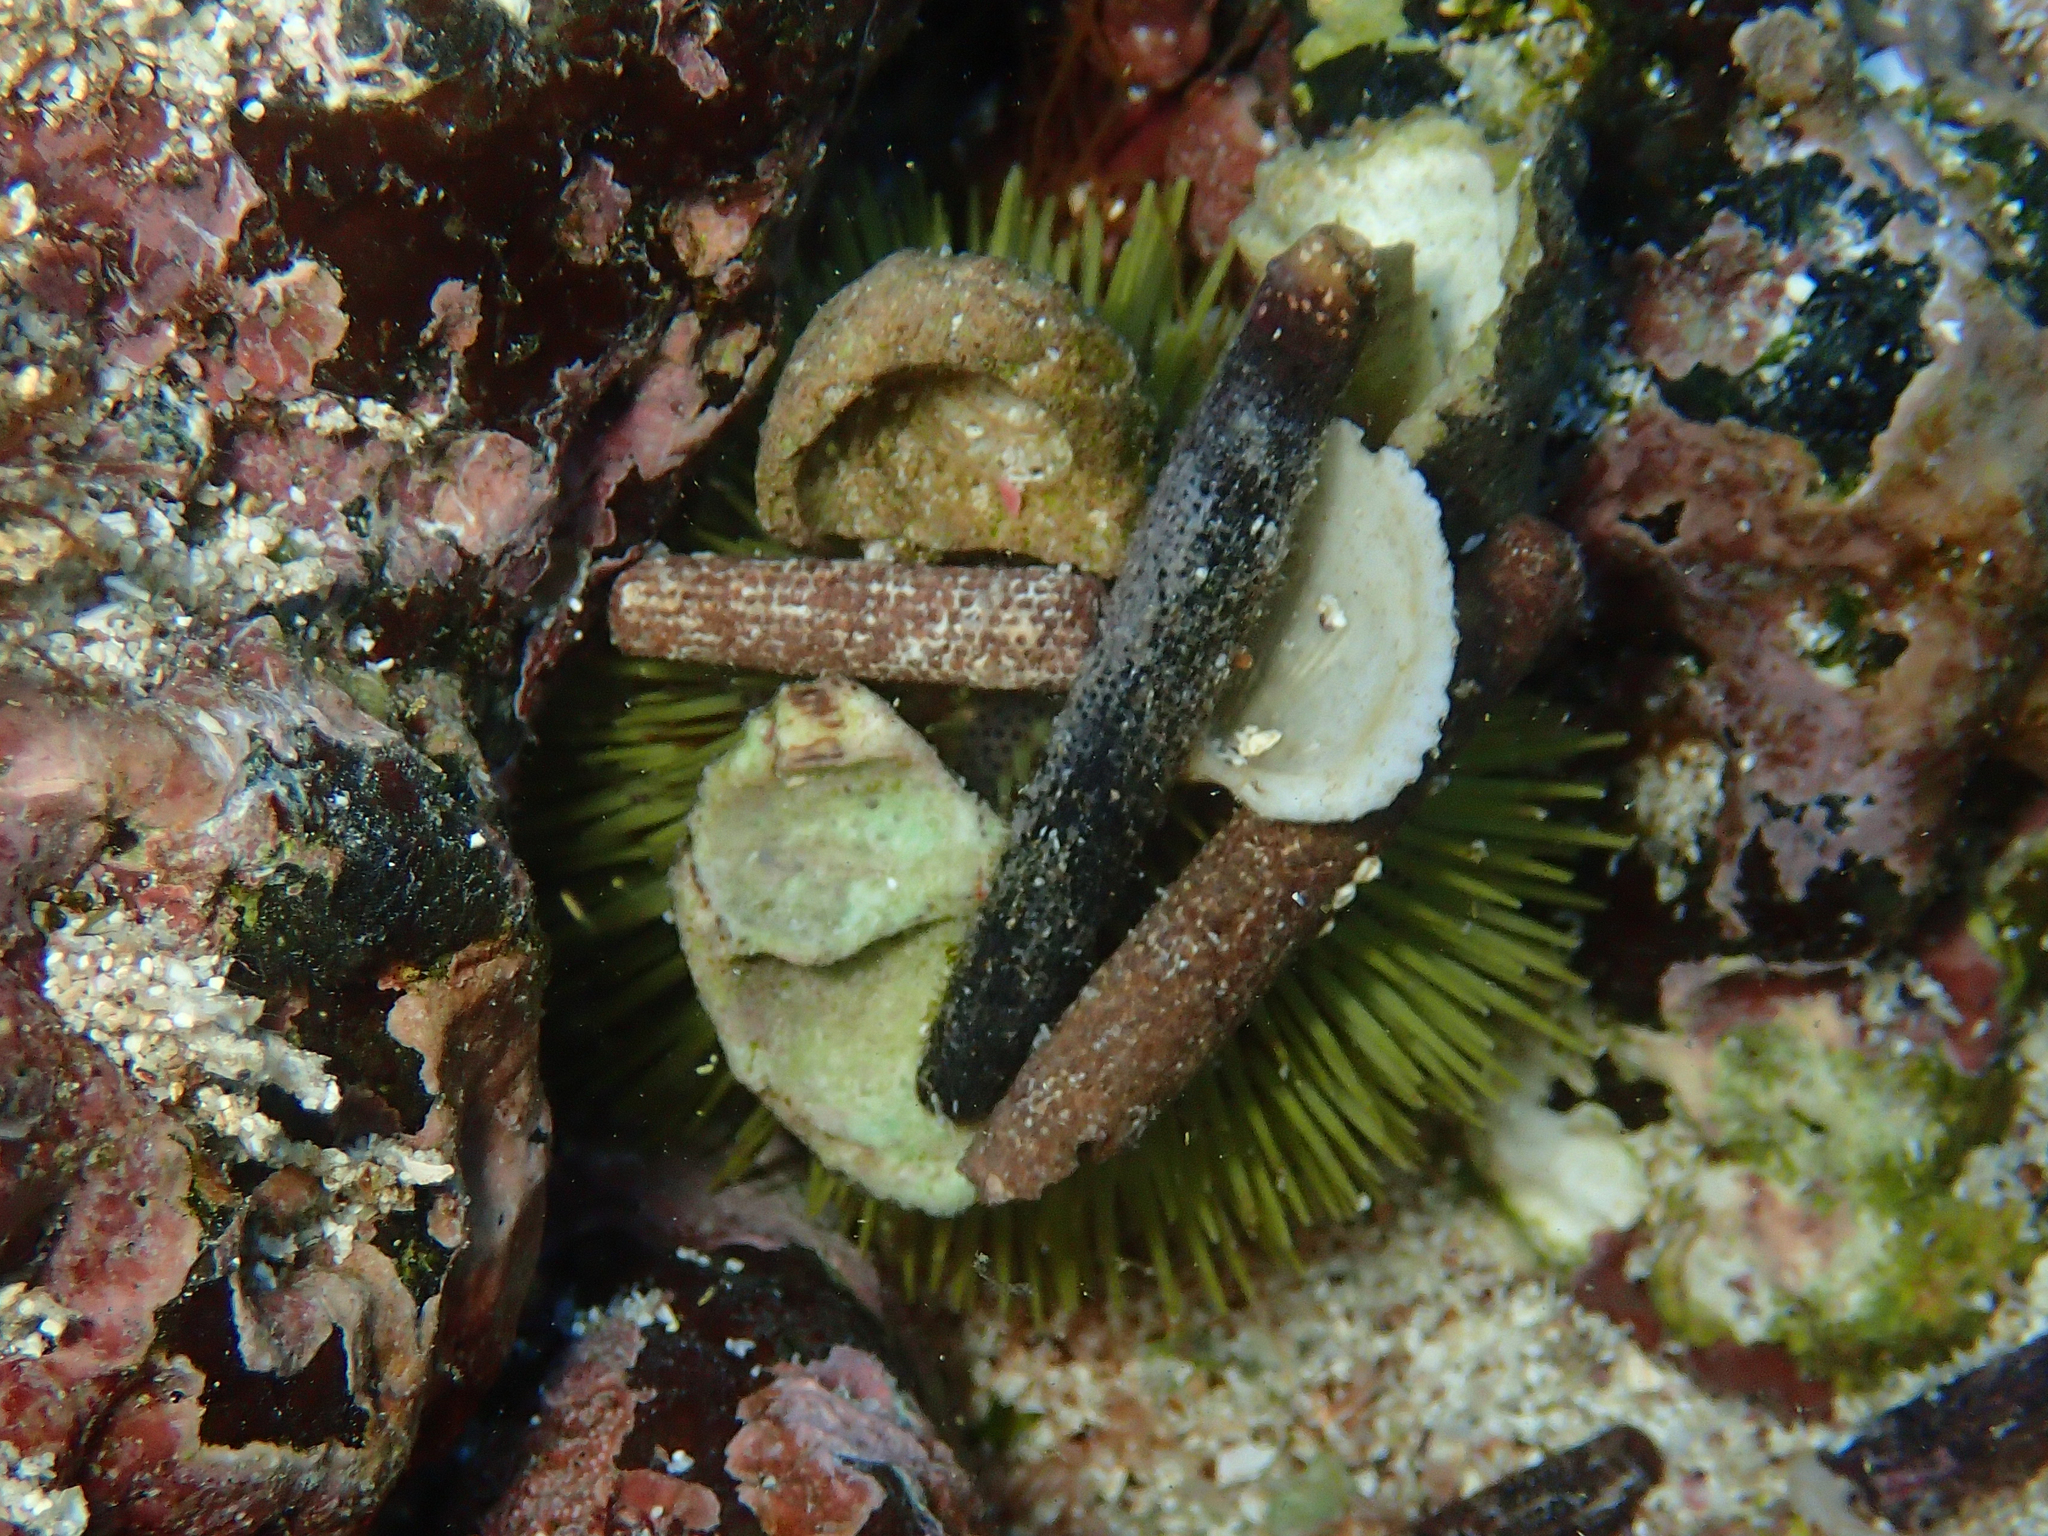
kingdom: Animalia
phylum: Echinodermata
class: Echinoidea
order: Camarodonta
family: Toxopneustidae
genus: Lytechinus
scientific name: Lytechinus semituberculatus
